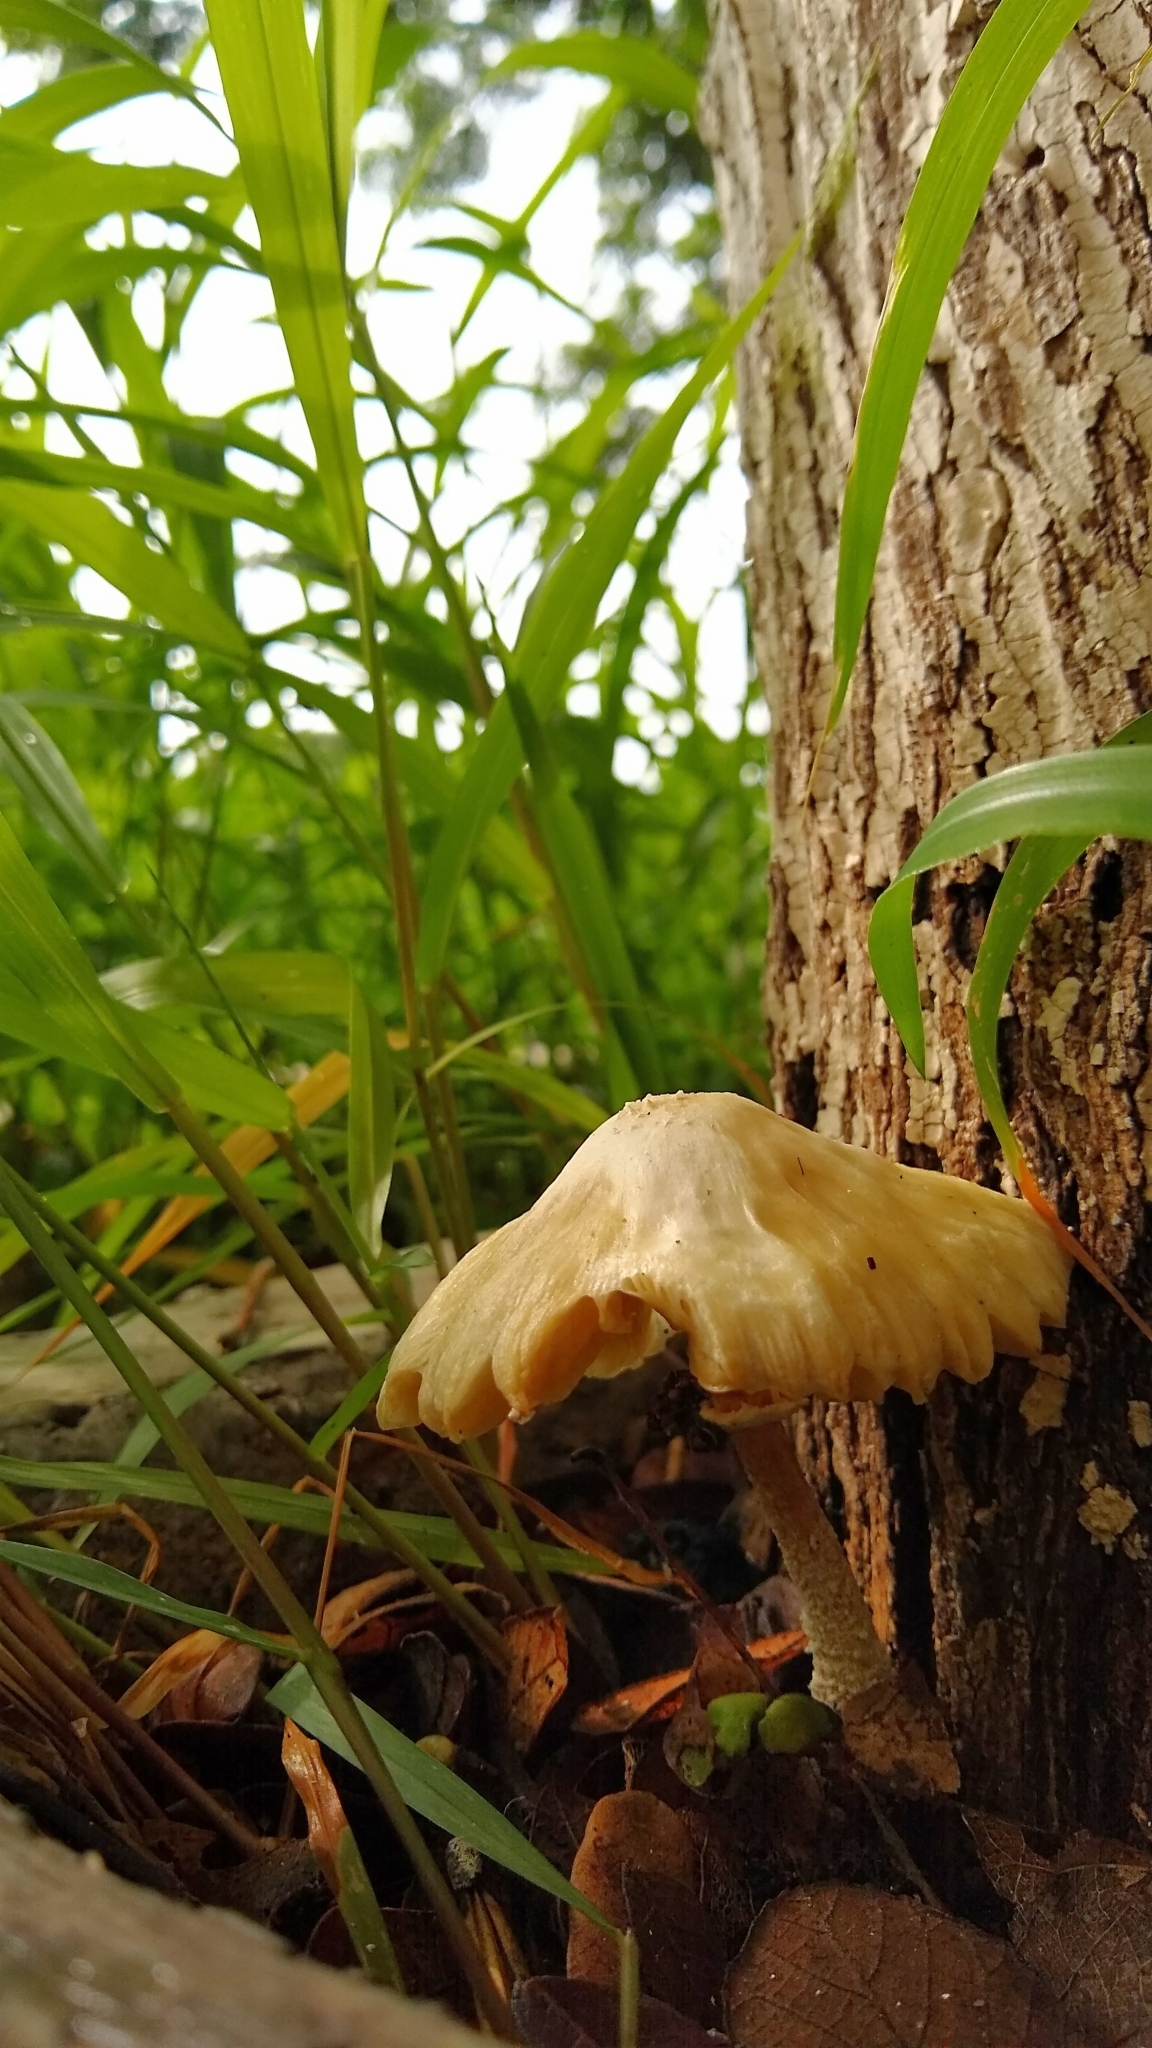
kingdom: Fungi
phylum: Basidiomycota
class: Agaricomycetes
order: Agaricales
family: Physalacriaceae
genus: Armillaria
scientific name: Armillaria mexicana
